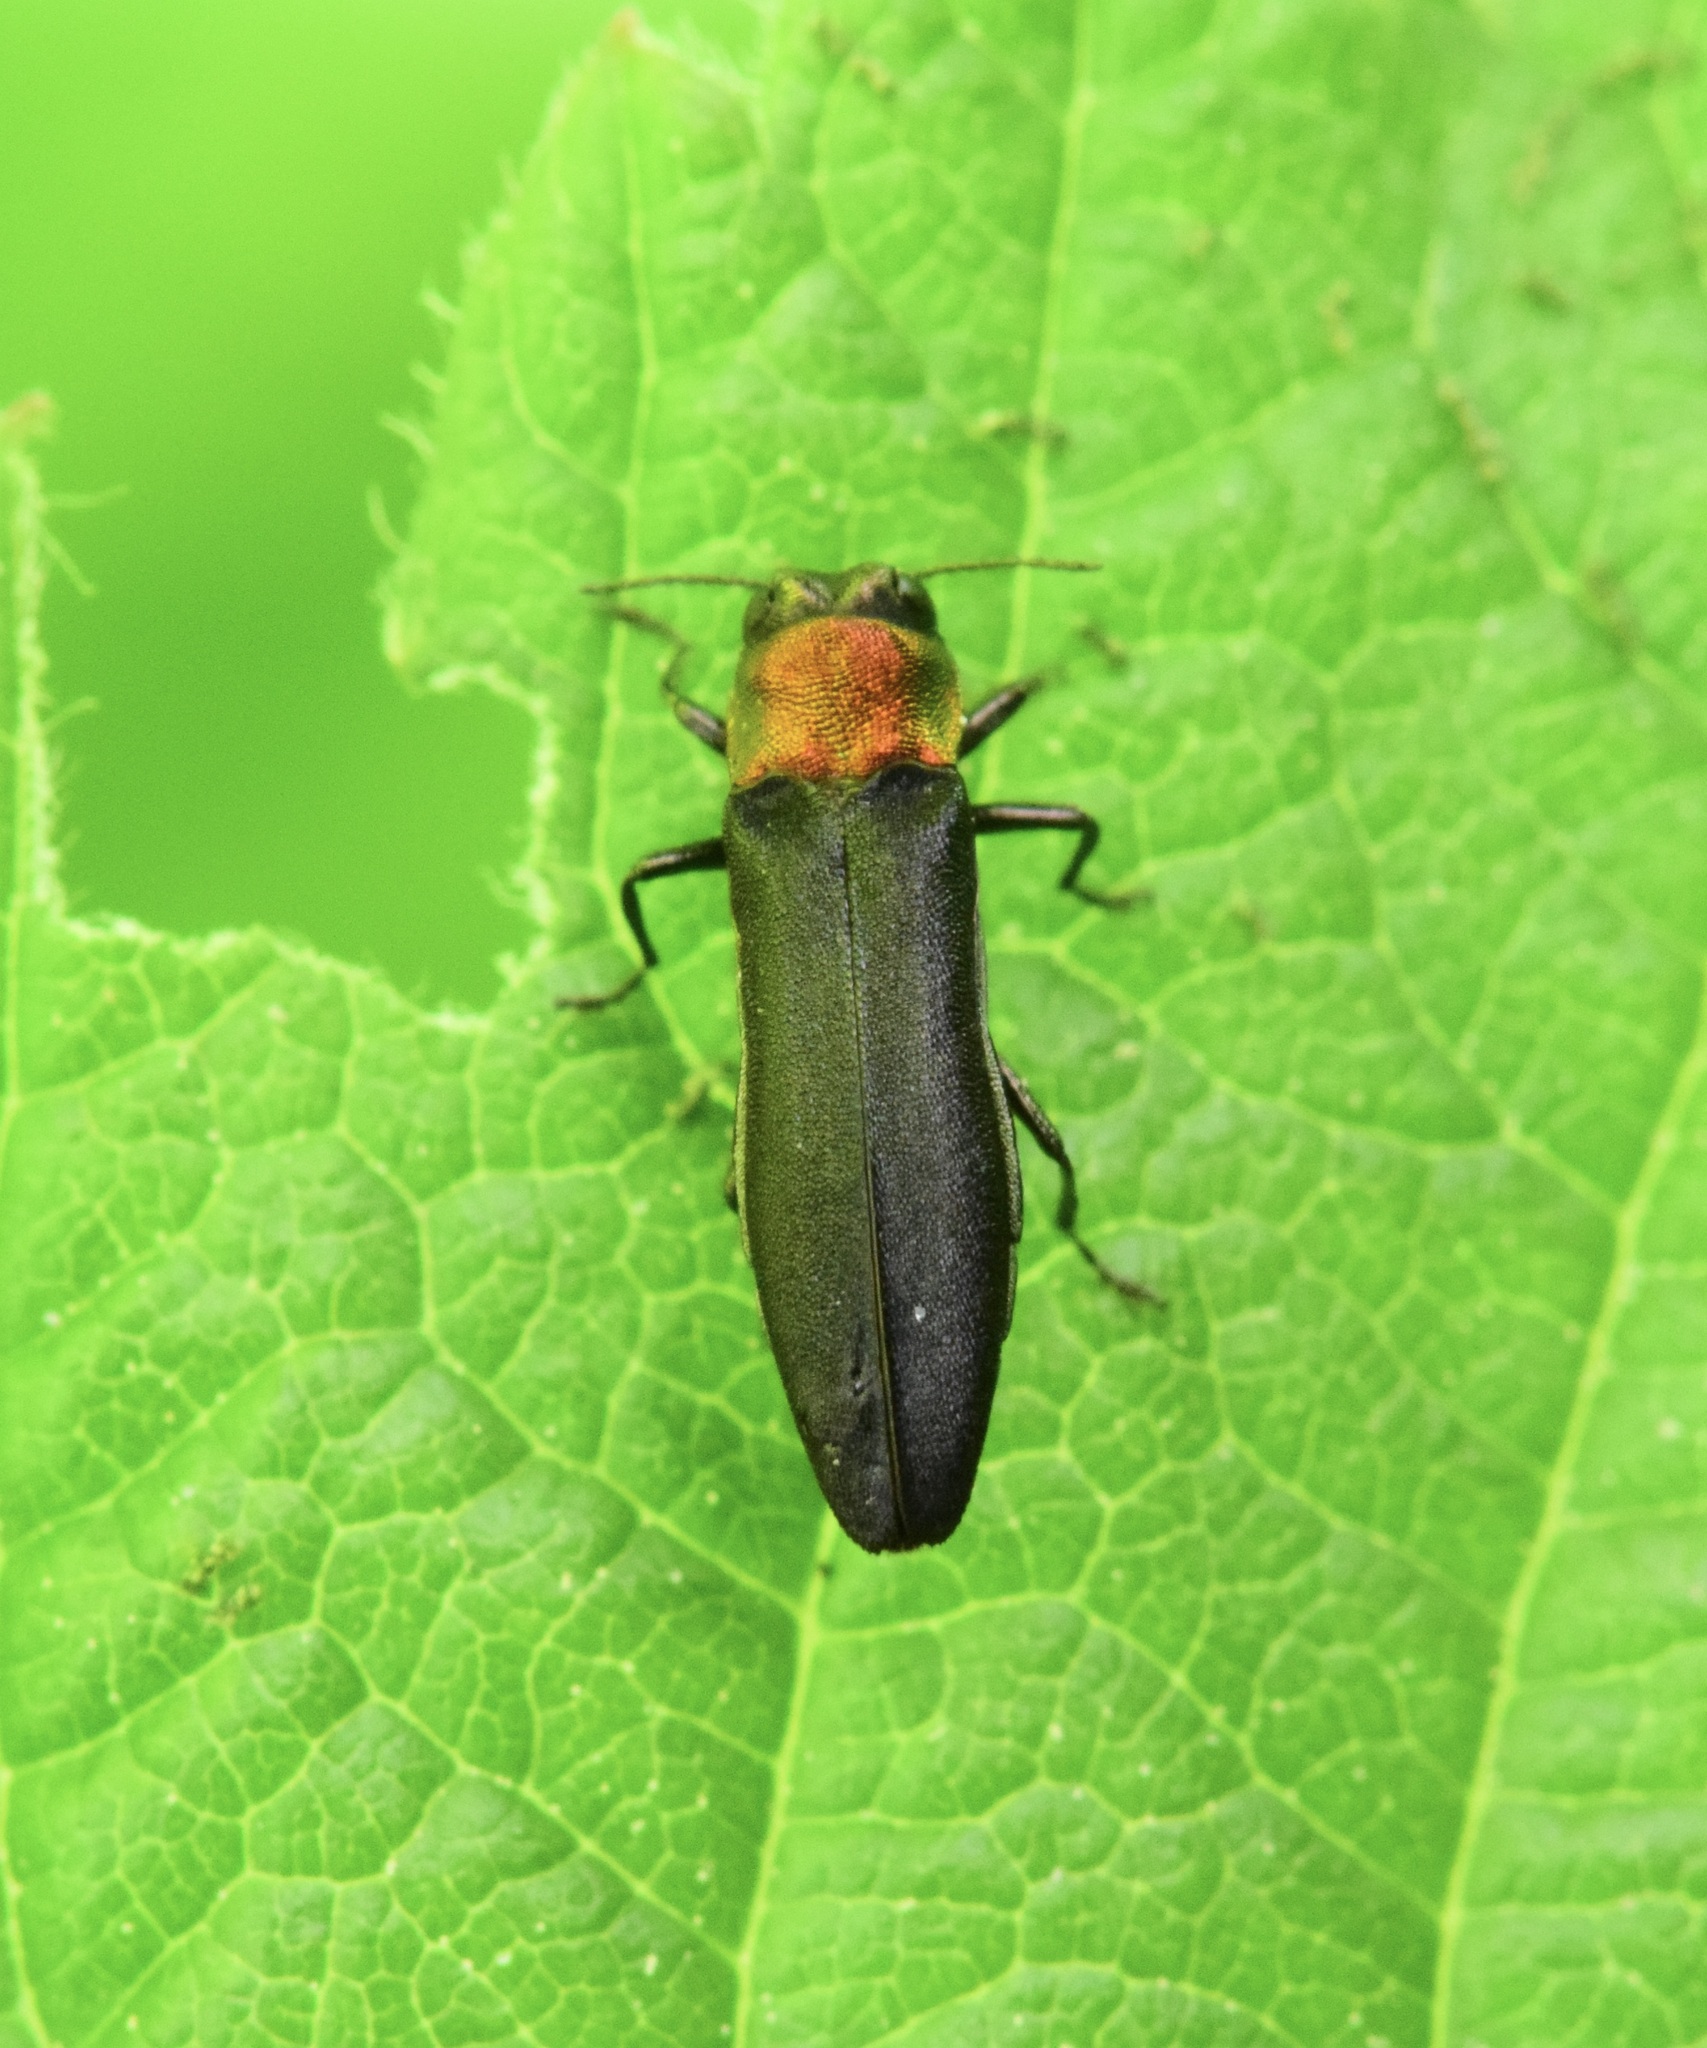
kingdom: Animalia
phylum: Arthropoda
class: Insecta
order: Coleoptera
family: Buprestidae
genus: Agrilus
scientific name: Agrilus ruficollis
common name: Red-necked cane borer beetle
